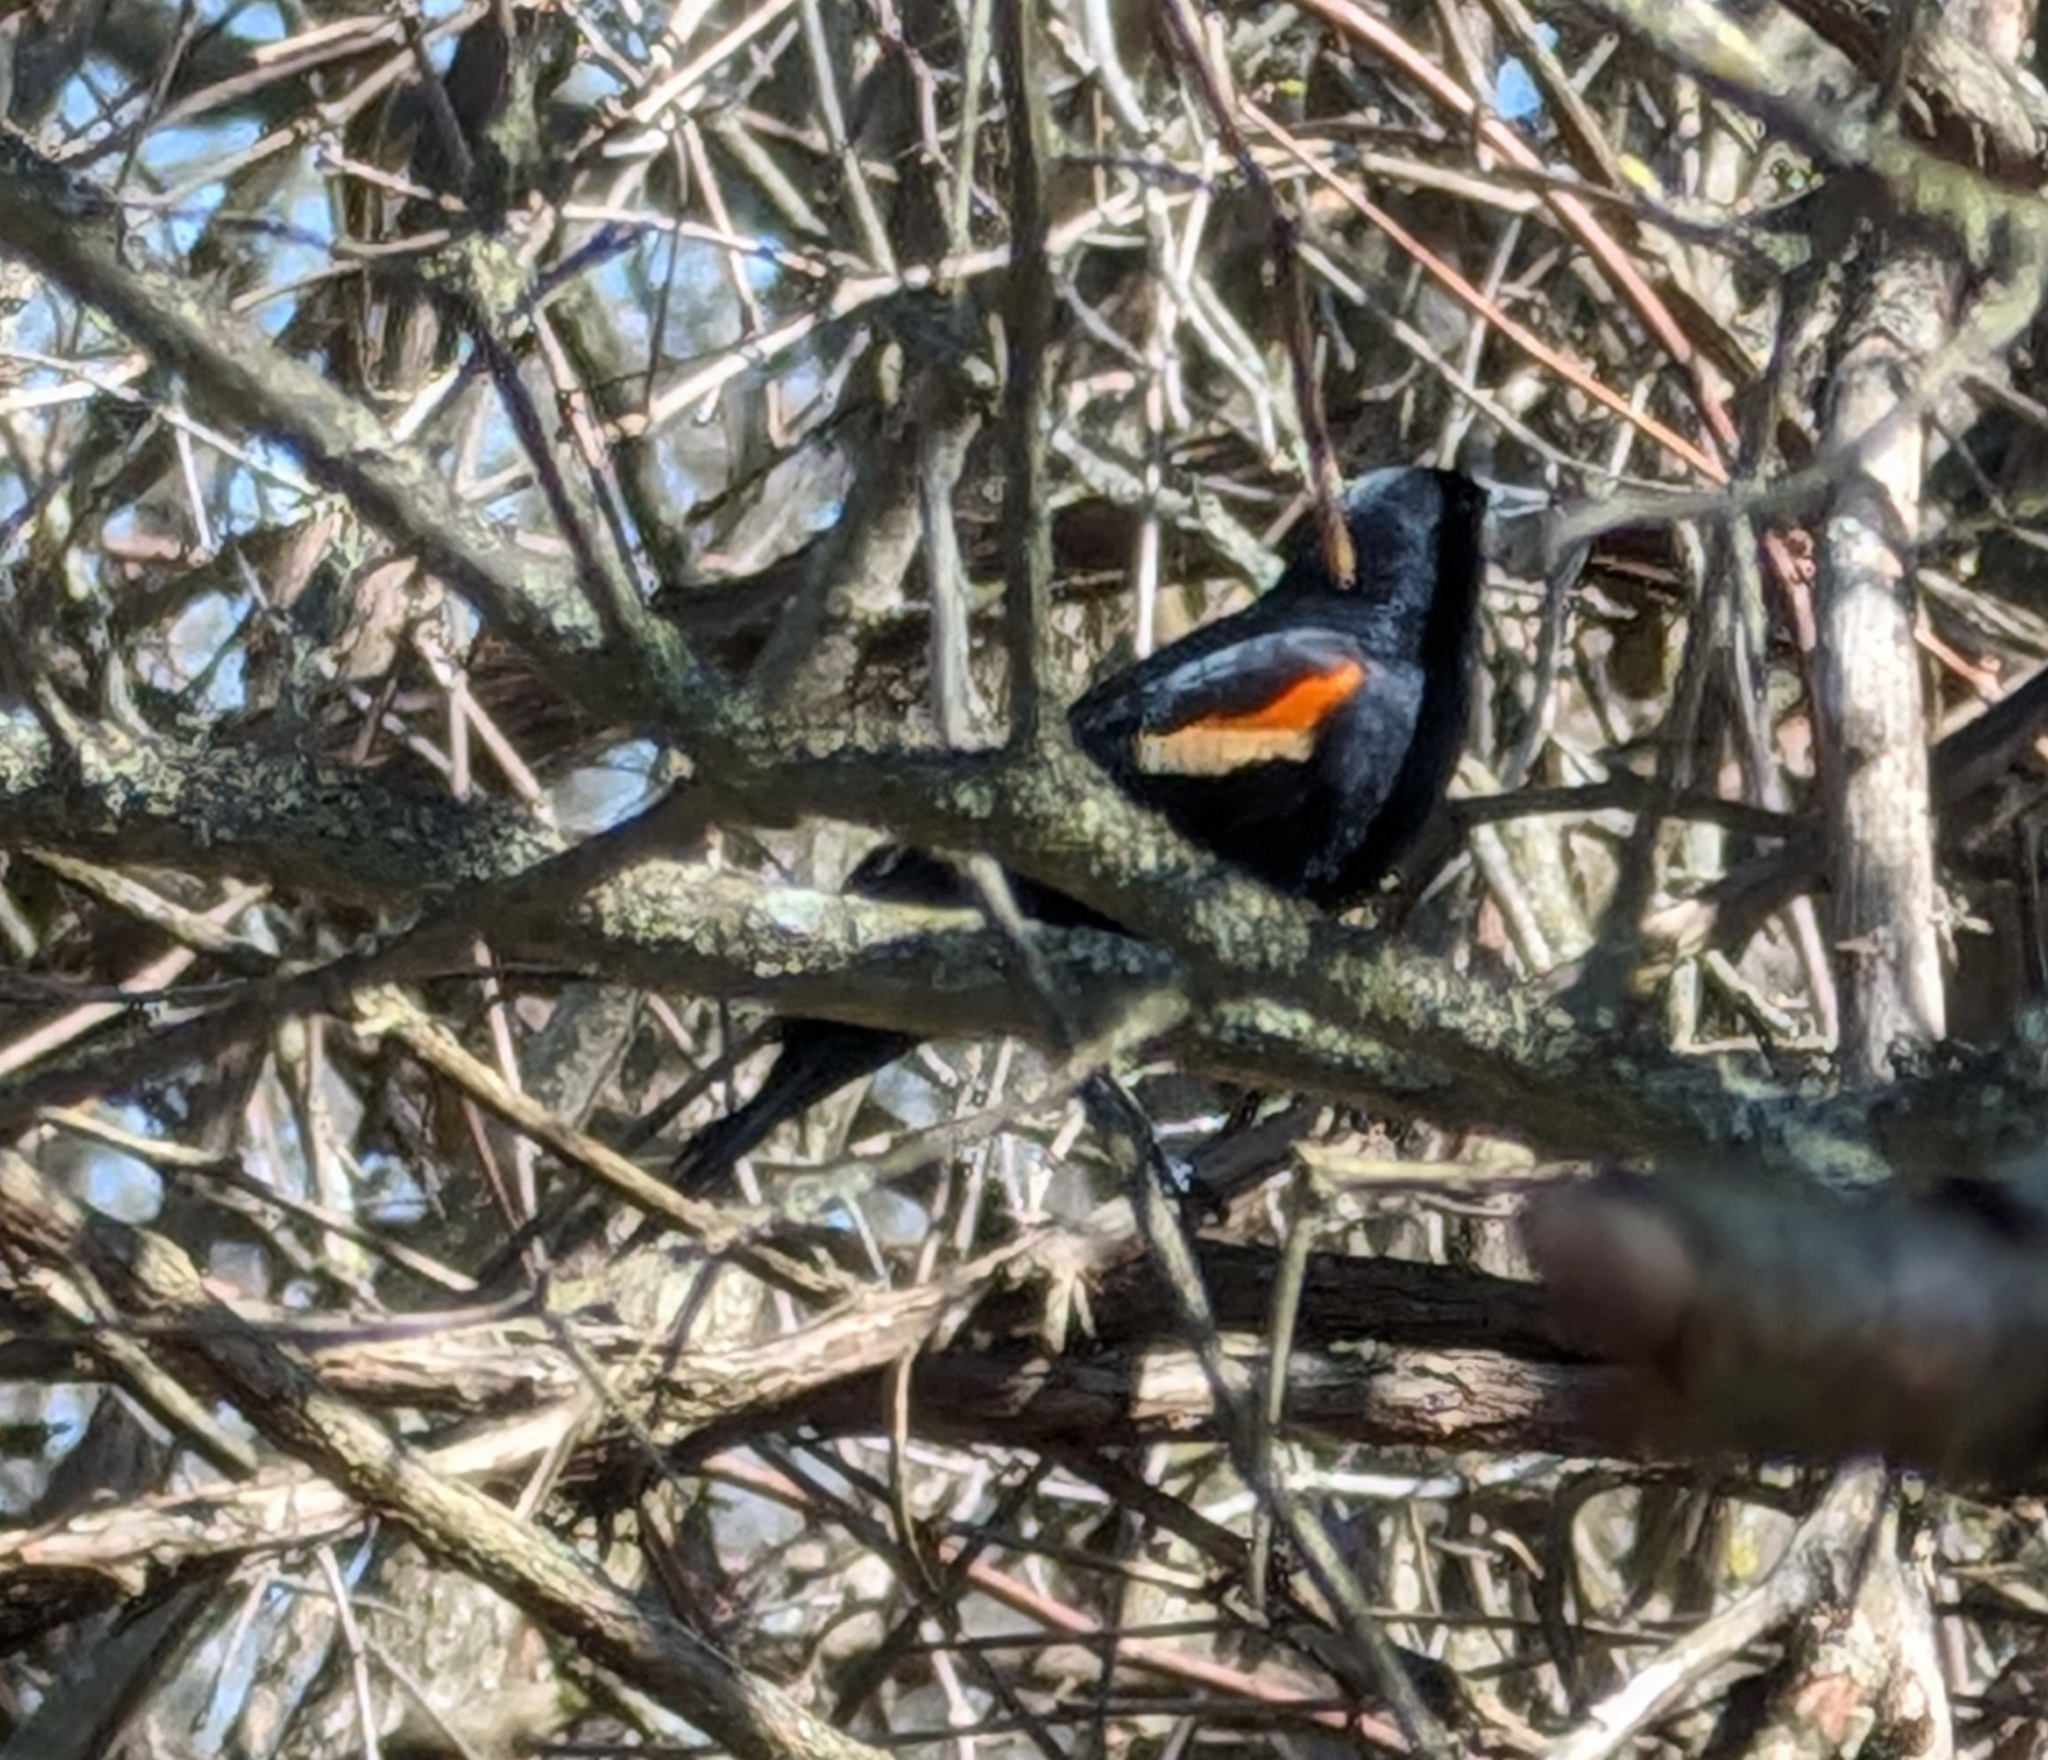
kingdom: Animalia
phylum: Chordata
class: Aves
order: Passeriformes
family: Icteridae
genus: Agelaius
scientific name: Agelaius phoeniceus
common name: Red-winged blackbird
